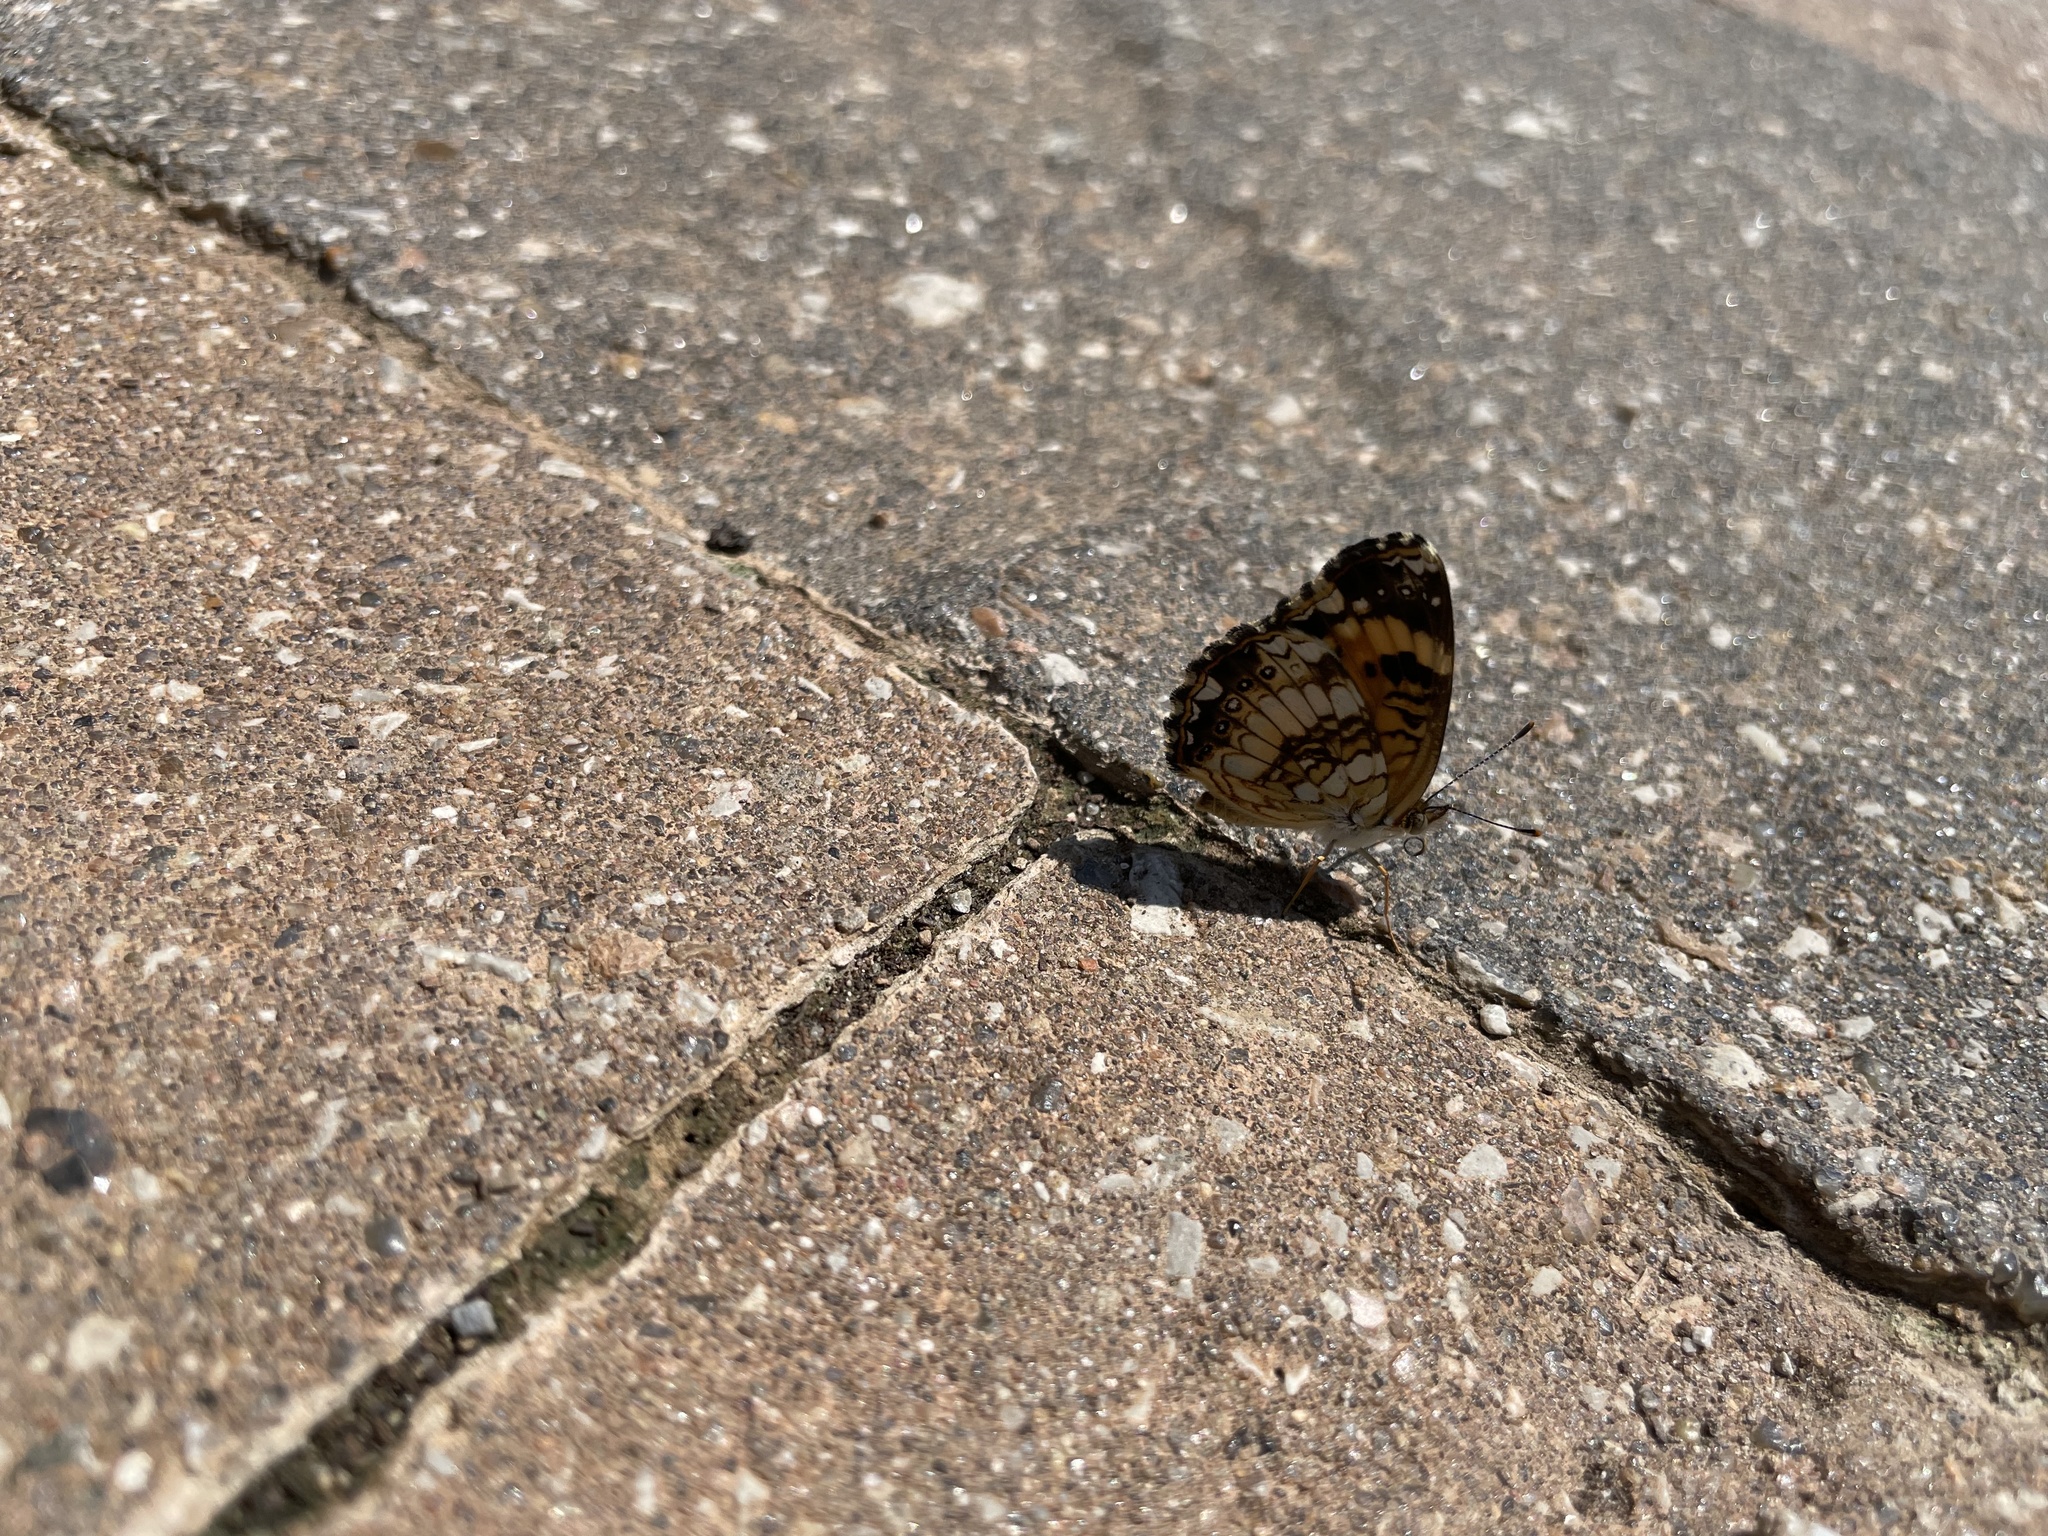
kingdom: Animalia
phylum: Arthropoda
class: Insecta
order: Lepidoptera
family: Nymphalidae
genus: Chlosyne
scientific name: Chlosyne nycteis
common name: Silvery checkerspot
